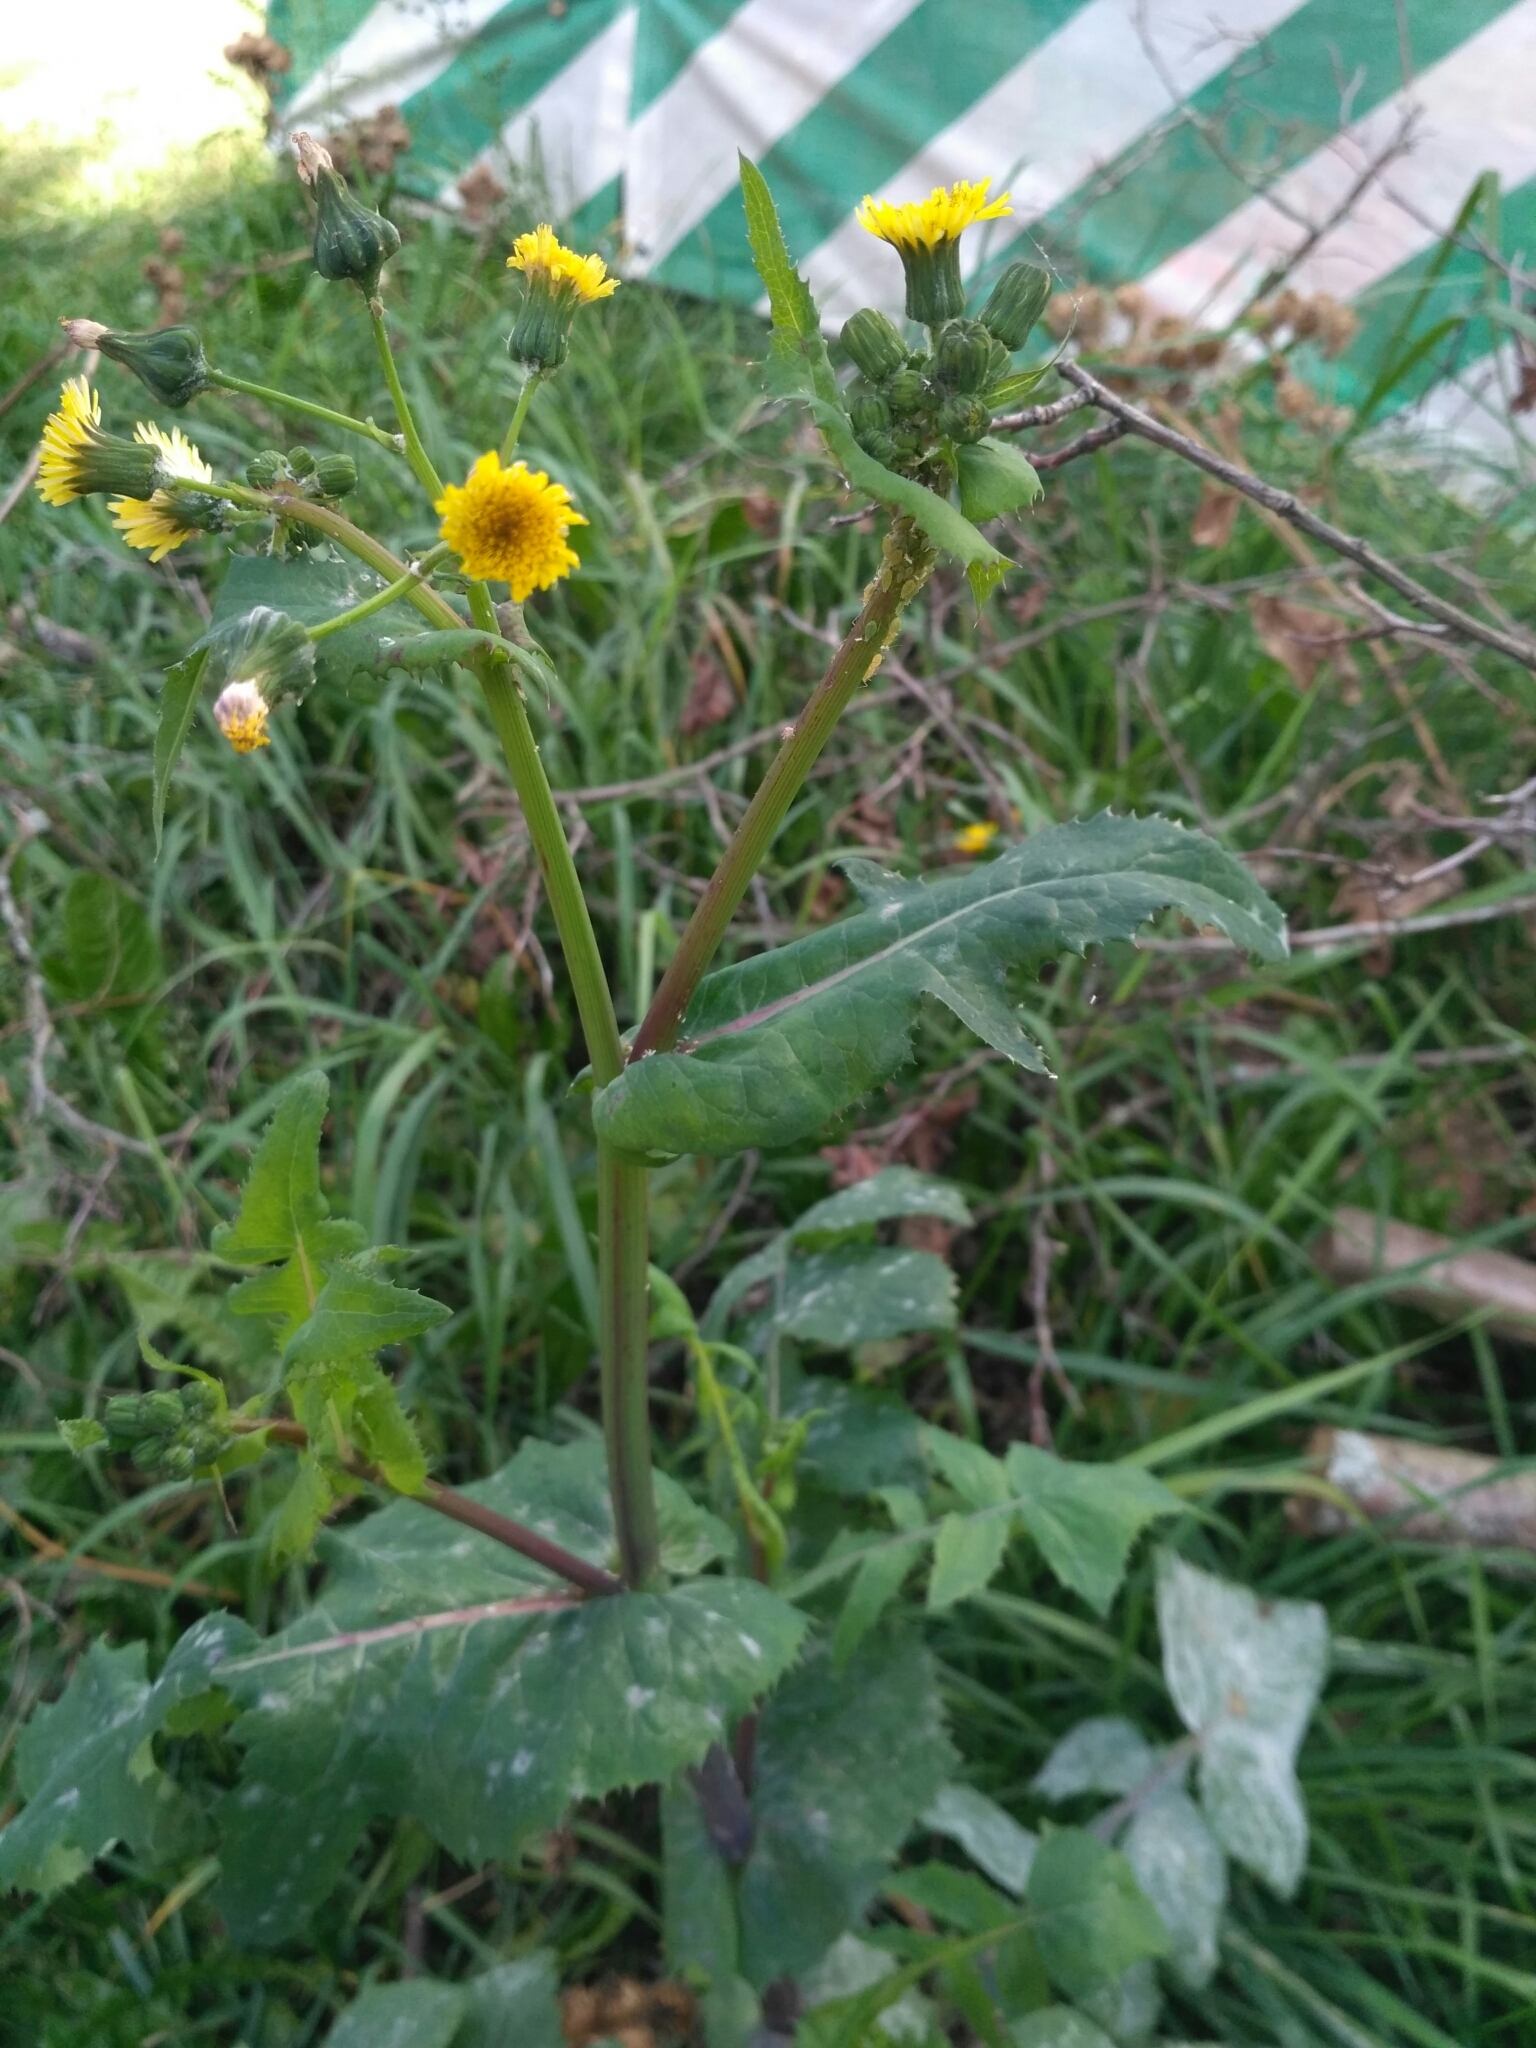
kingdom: Plantae
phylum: Tracheophyta
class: Magnoliopsida
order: Asterales
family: Asteraceae
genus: Sonchus
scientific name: Sonchus oleraceus
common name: Common sowthistle
